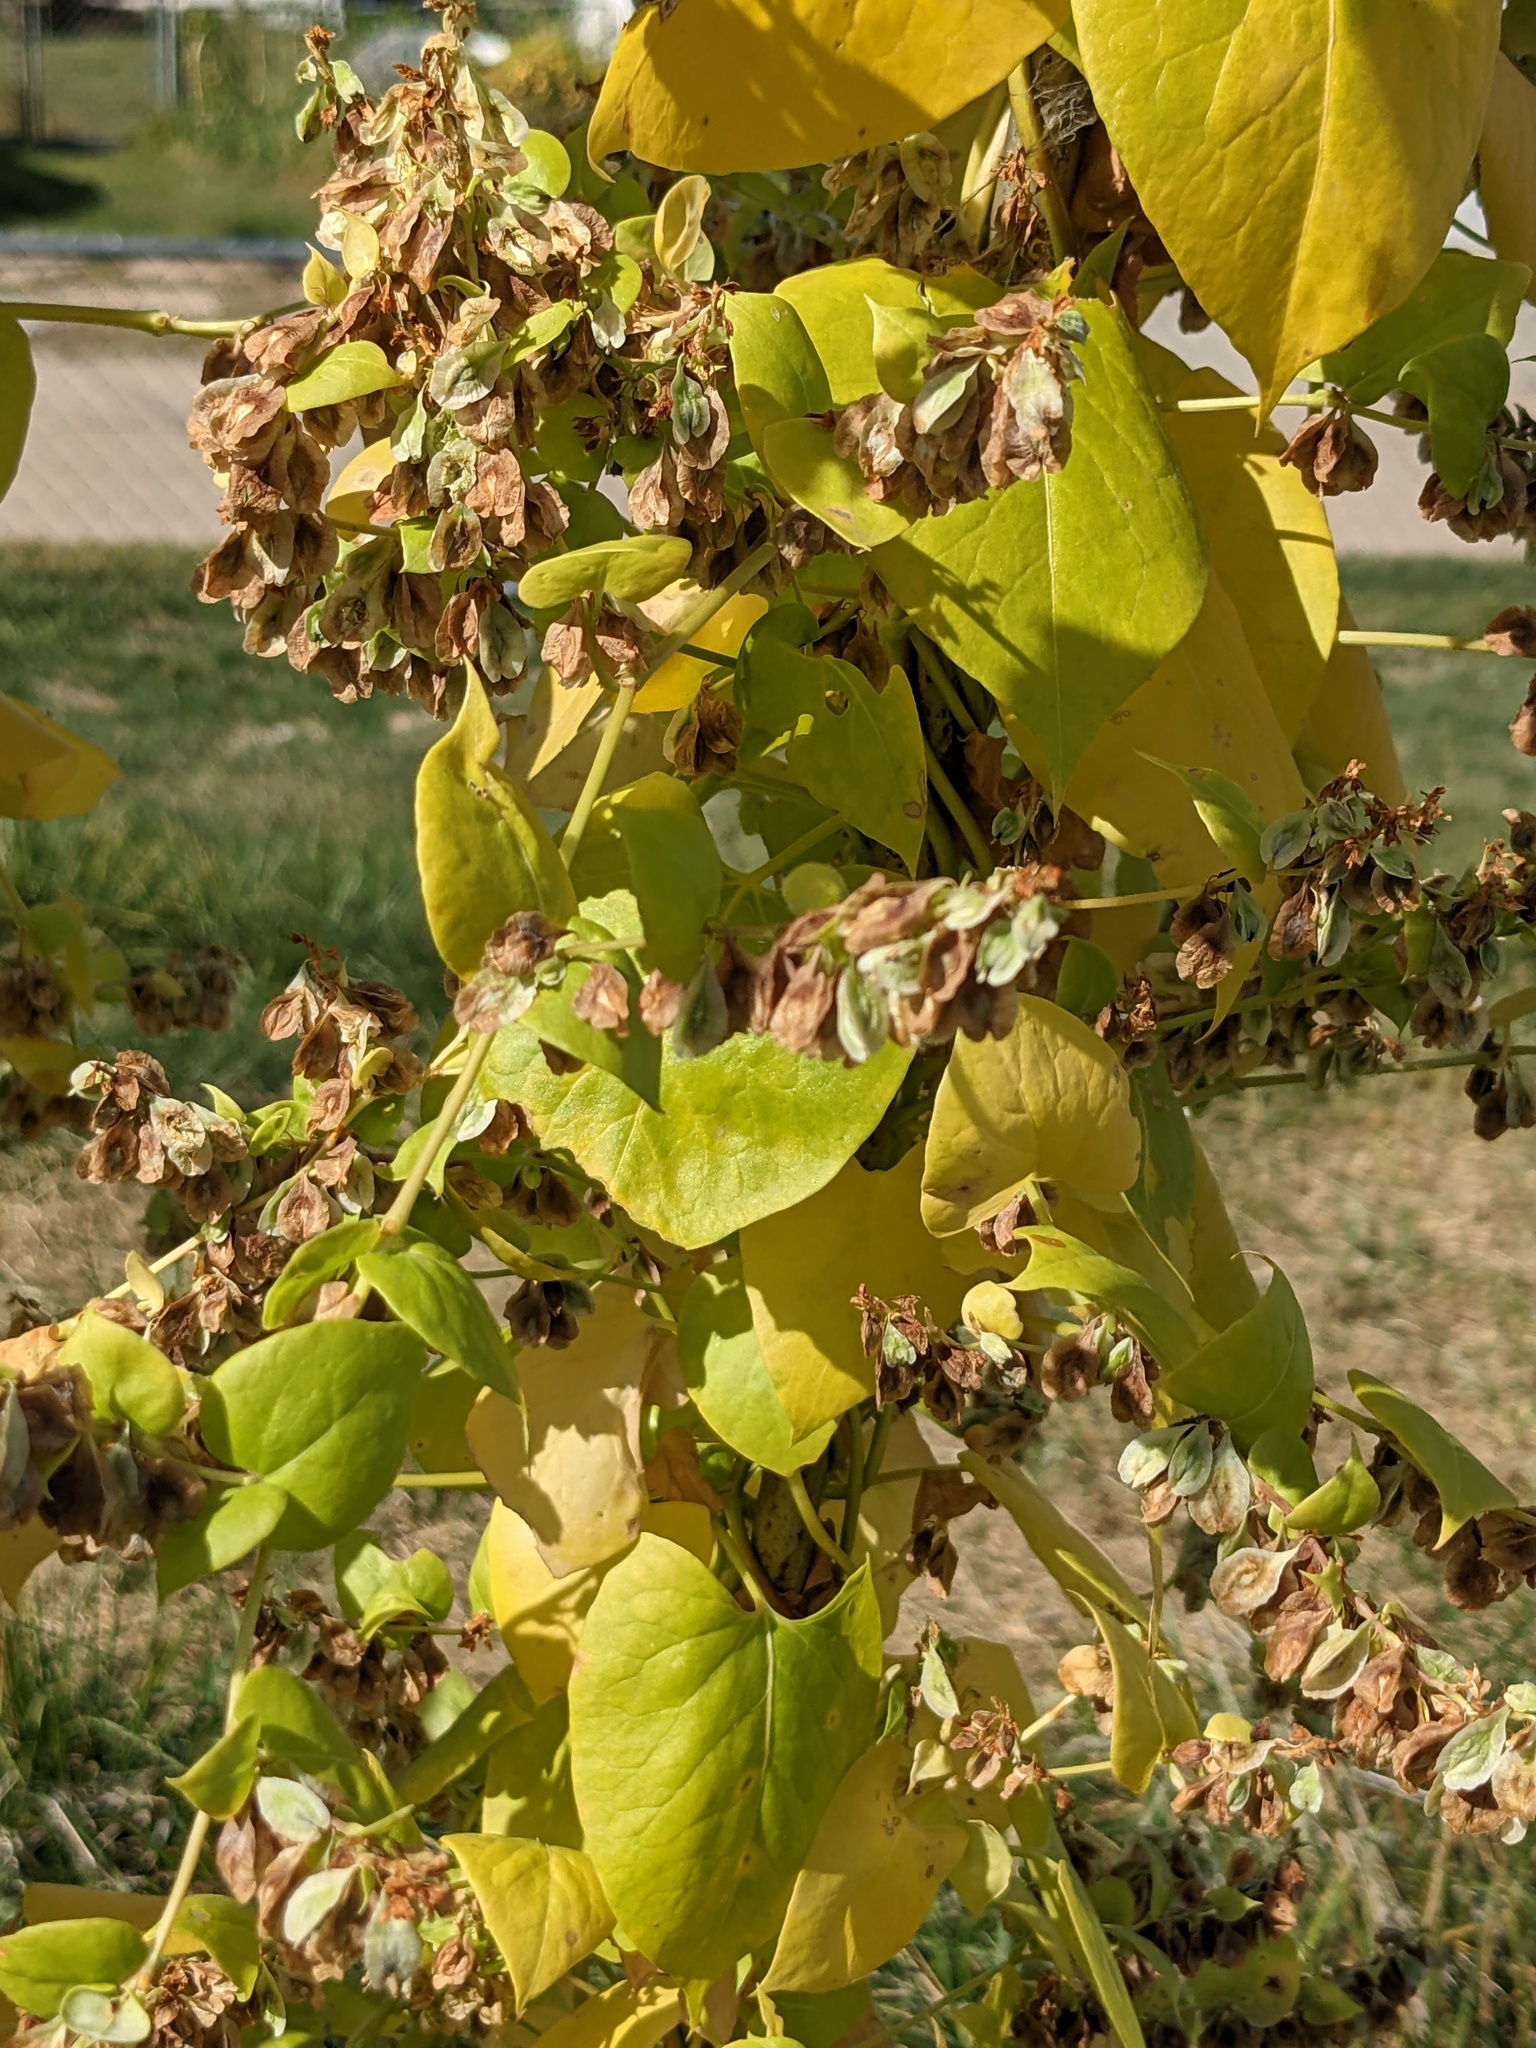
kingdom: Plantae
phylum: Tracheophyta
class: Magnoliopsida
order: Caryophyllales
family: Polygonaceae
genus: Fallopia
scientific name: Fallopia scandens
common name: Climbing false buckwheat
